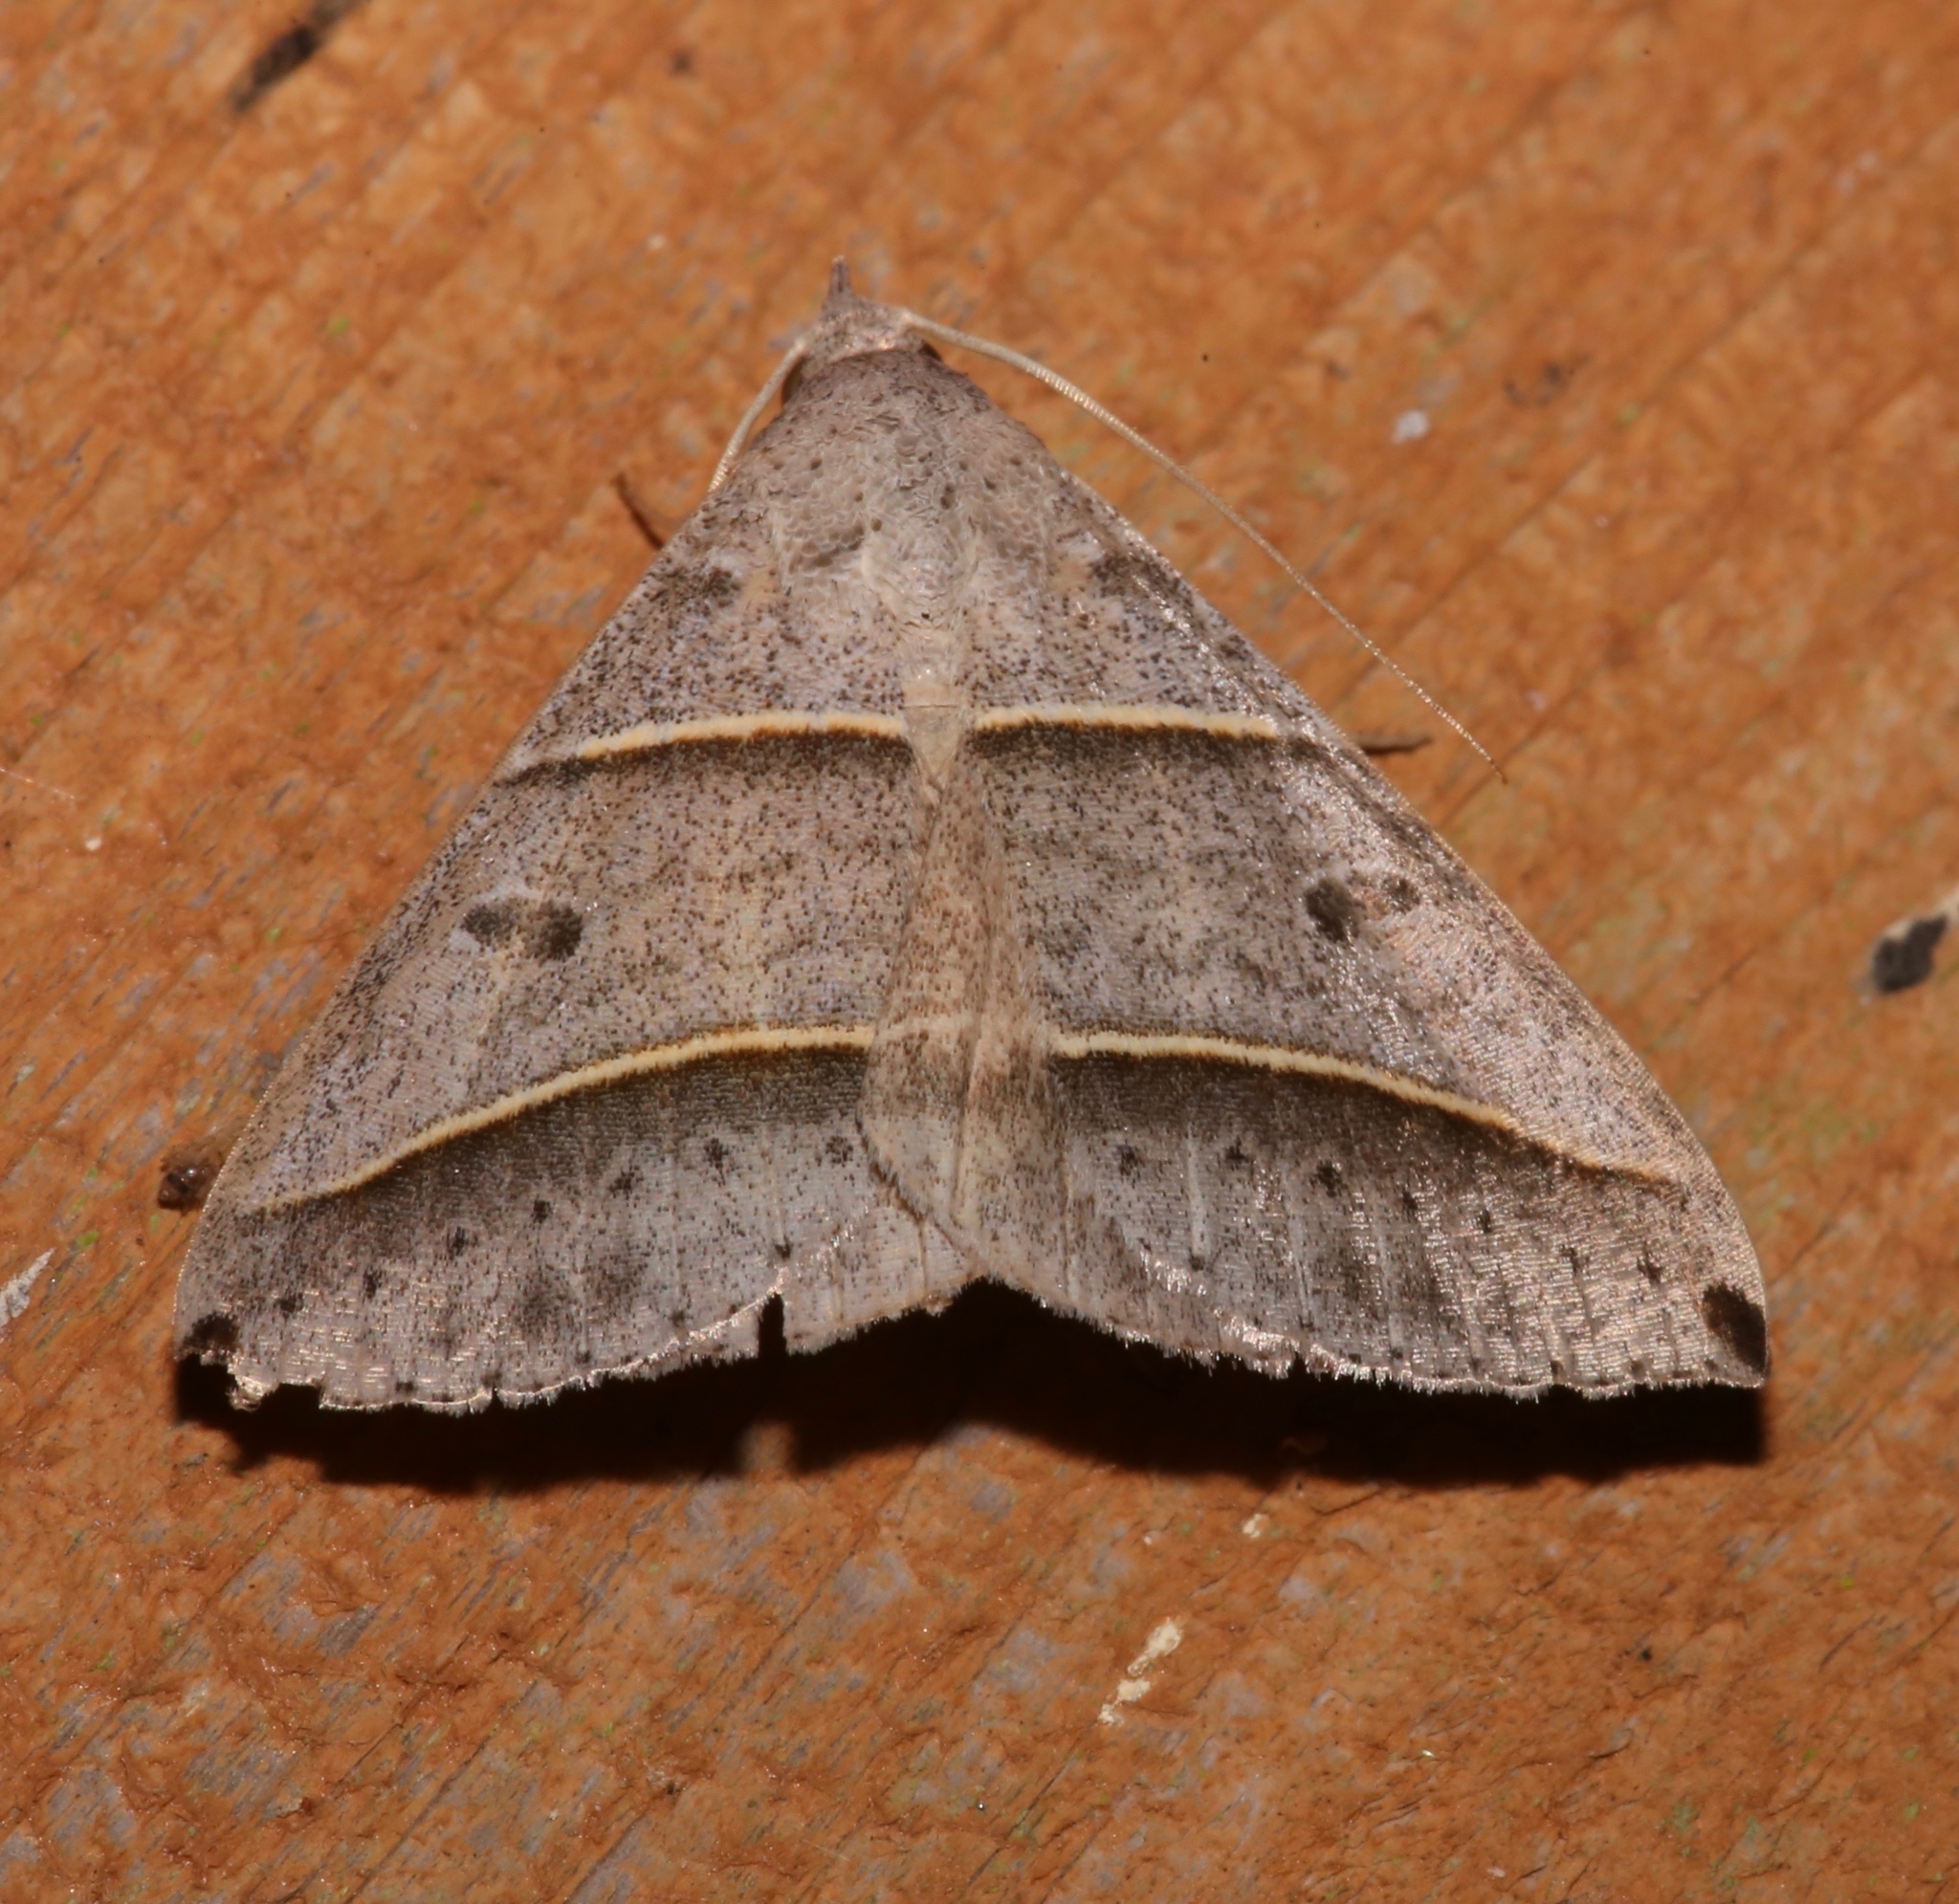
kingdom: Animalia
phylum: Arthropoda
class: Insecta
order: Lepidoptera
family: Erebidae
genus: Ptichodis
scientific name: Ptichodis vinculum
